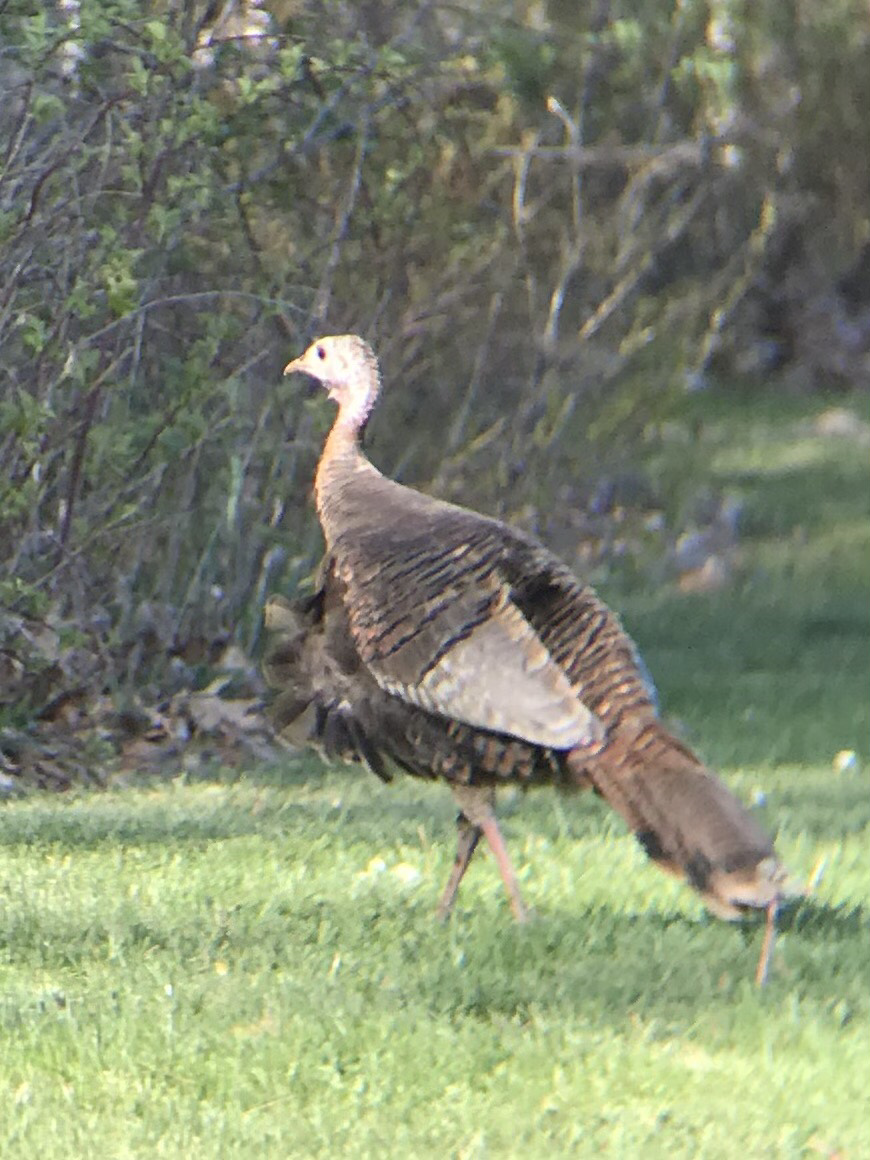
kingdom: Animalia
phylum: Chordata
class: Aves
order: Galliformes
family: Phasianidae
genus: Meleagris
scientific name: Meleagris gallopavo
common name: Wild turkey
